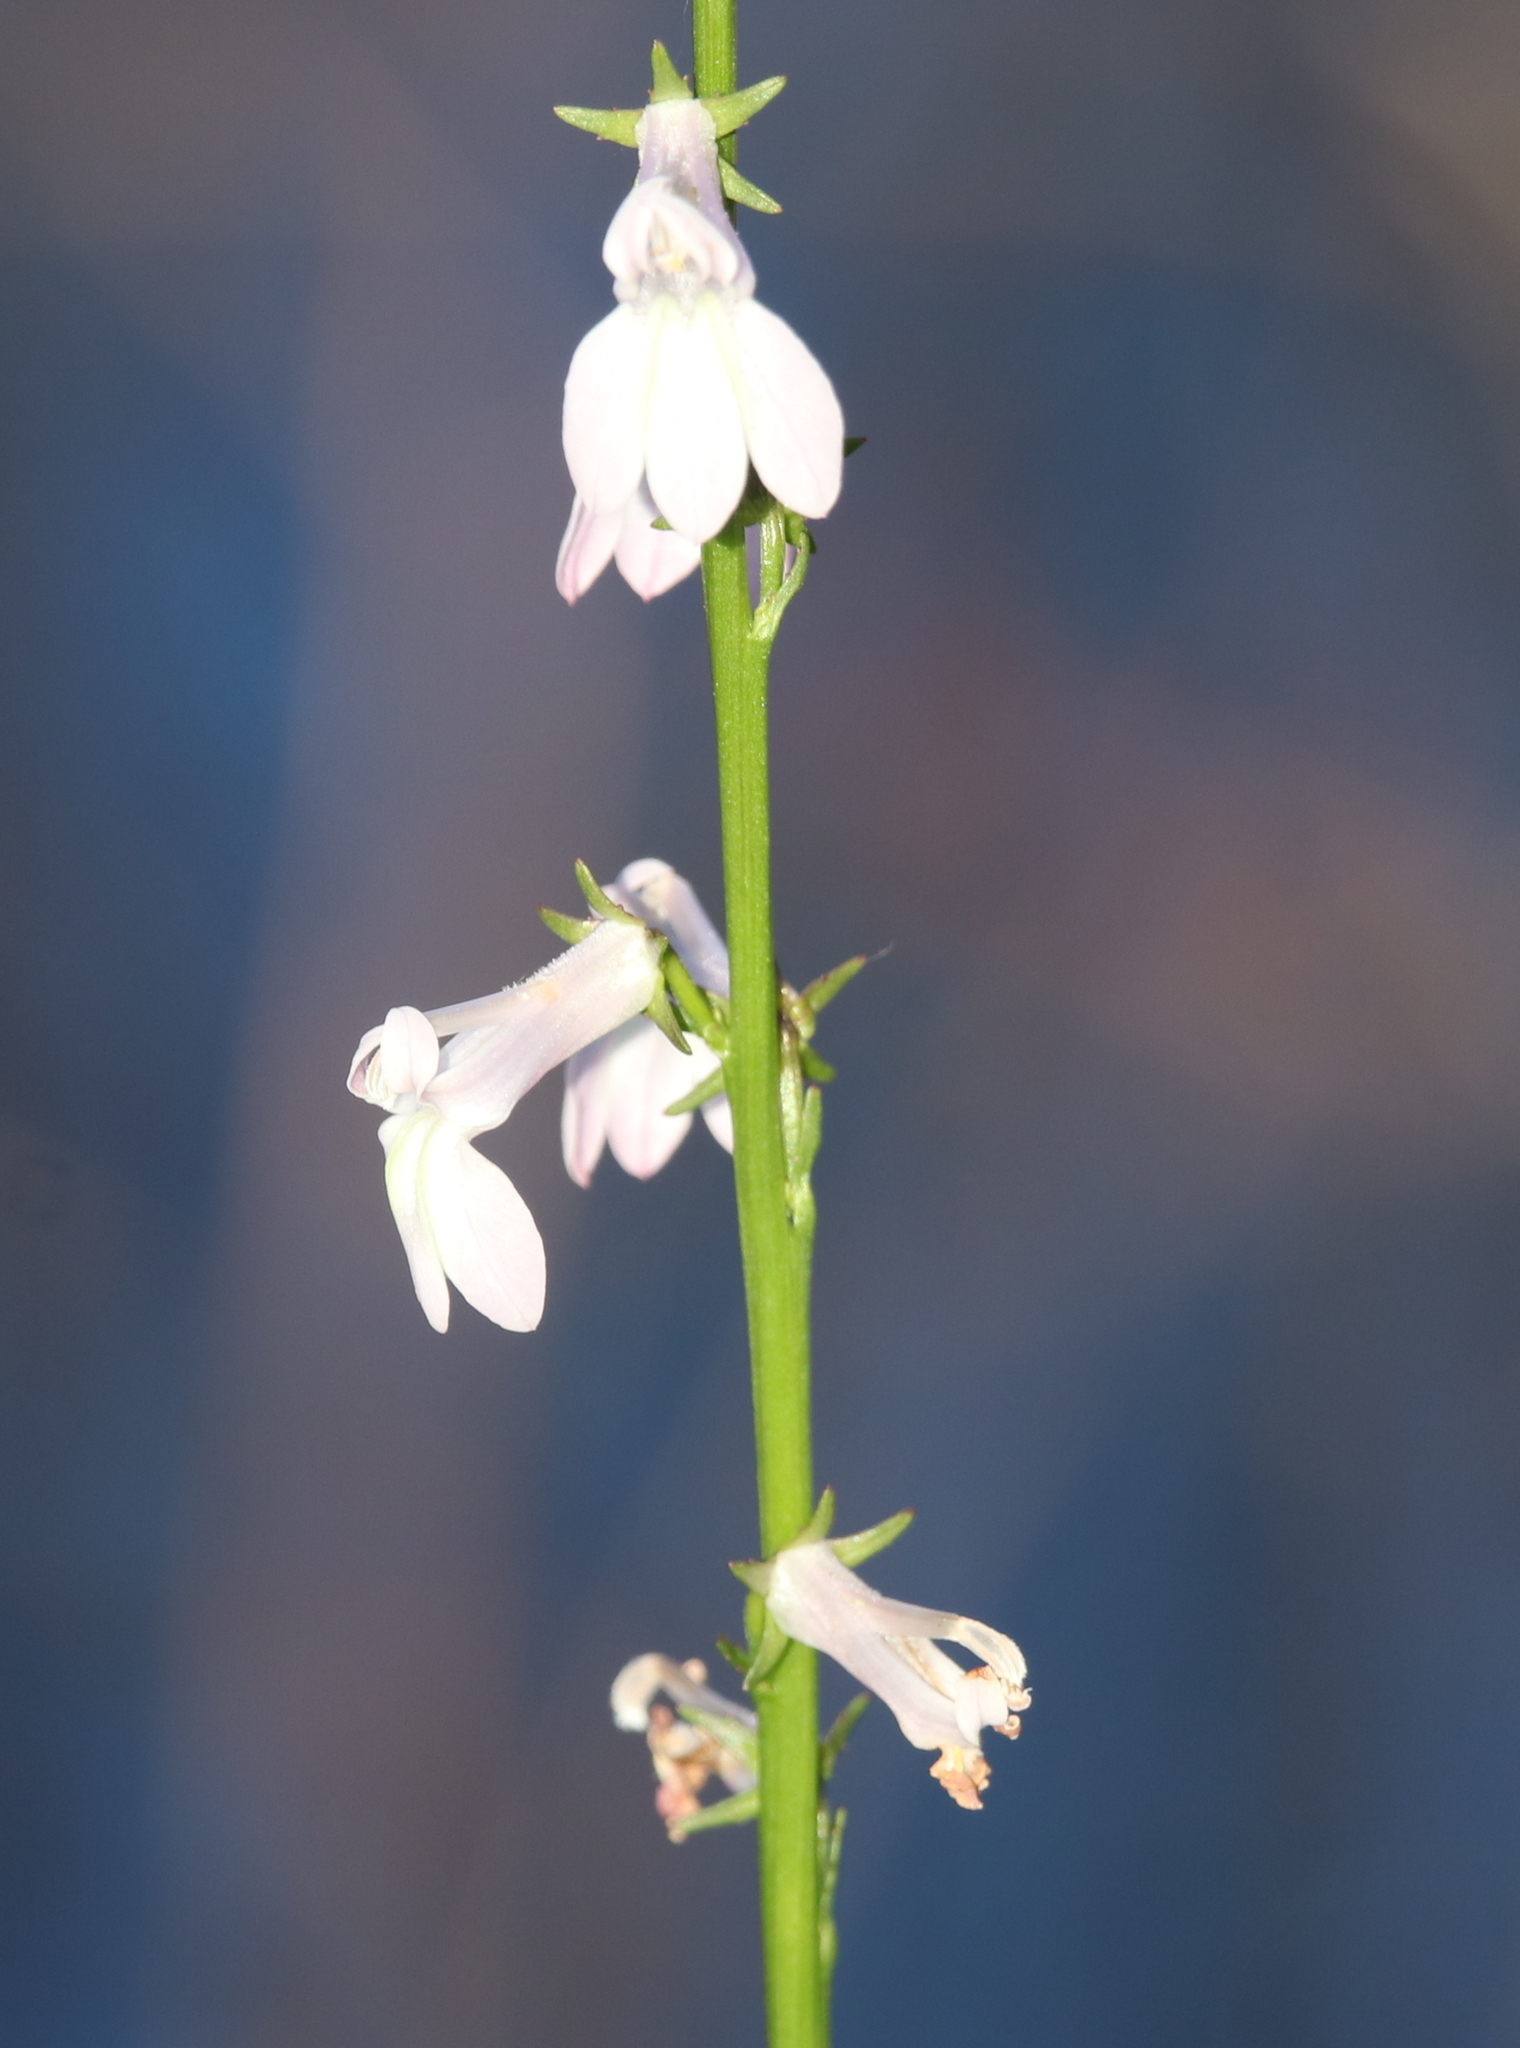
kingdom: Plantae
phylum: Tracheophyta
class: Magnoliopsida
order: Asterales
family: Campanulaceae
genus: Lobelia
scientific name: Lobelia floridana
